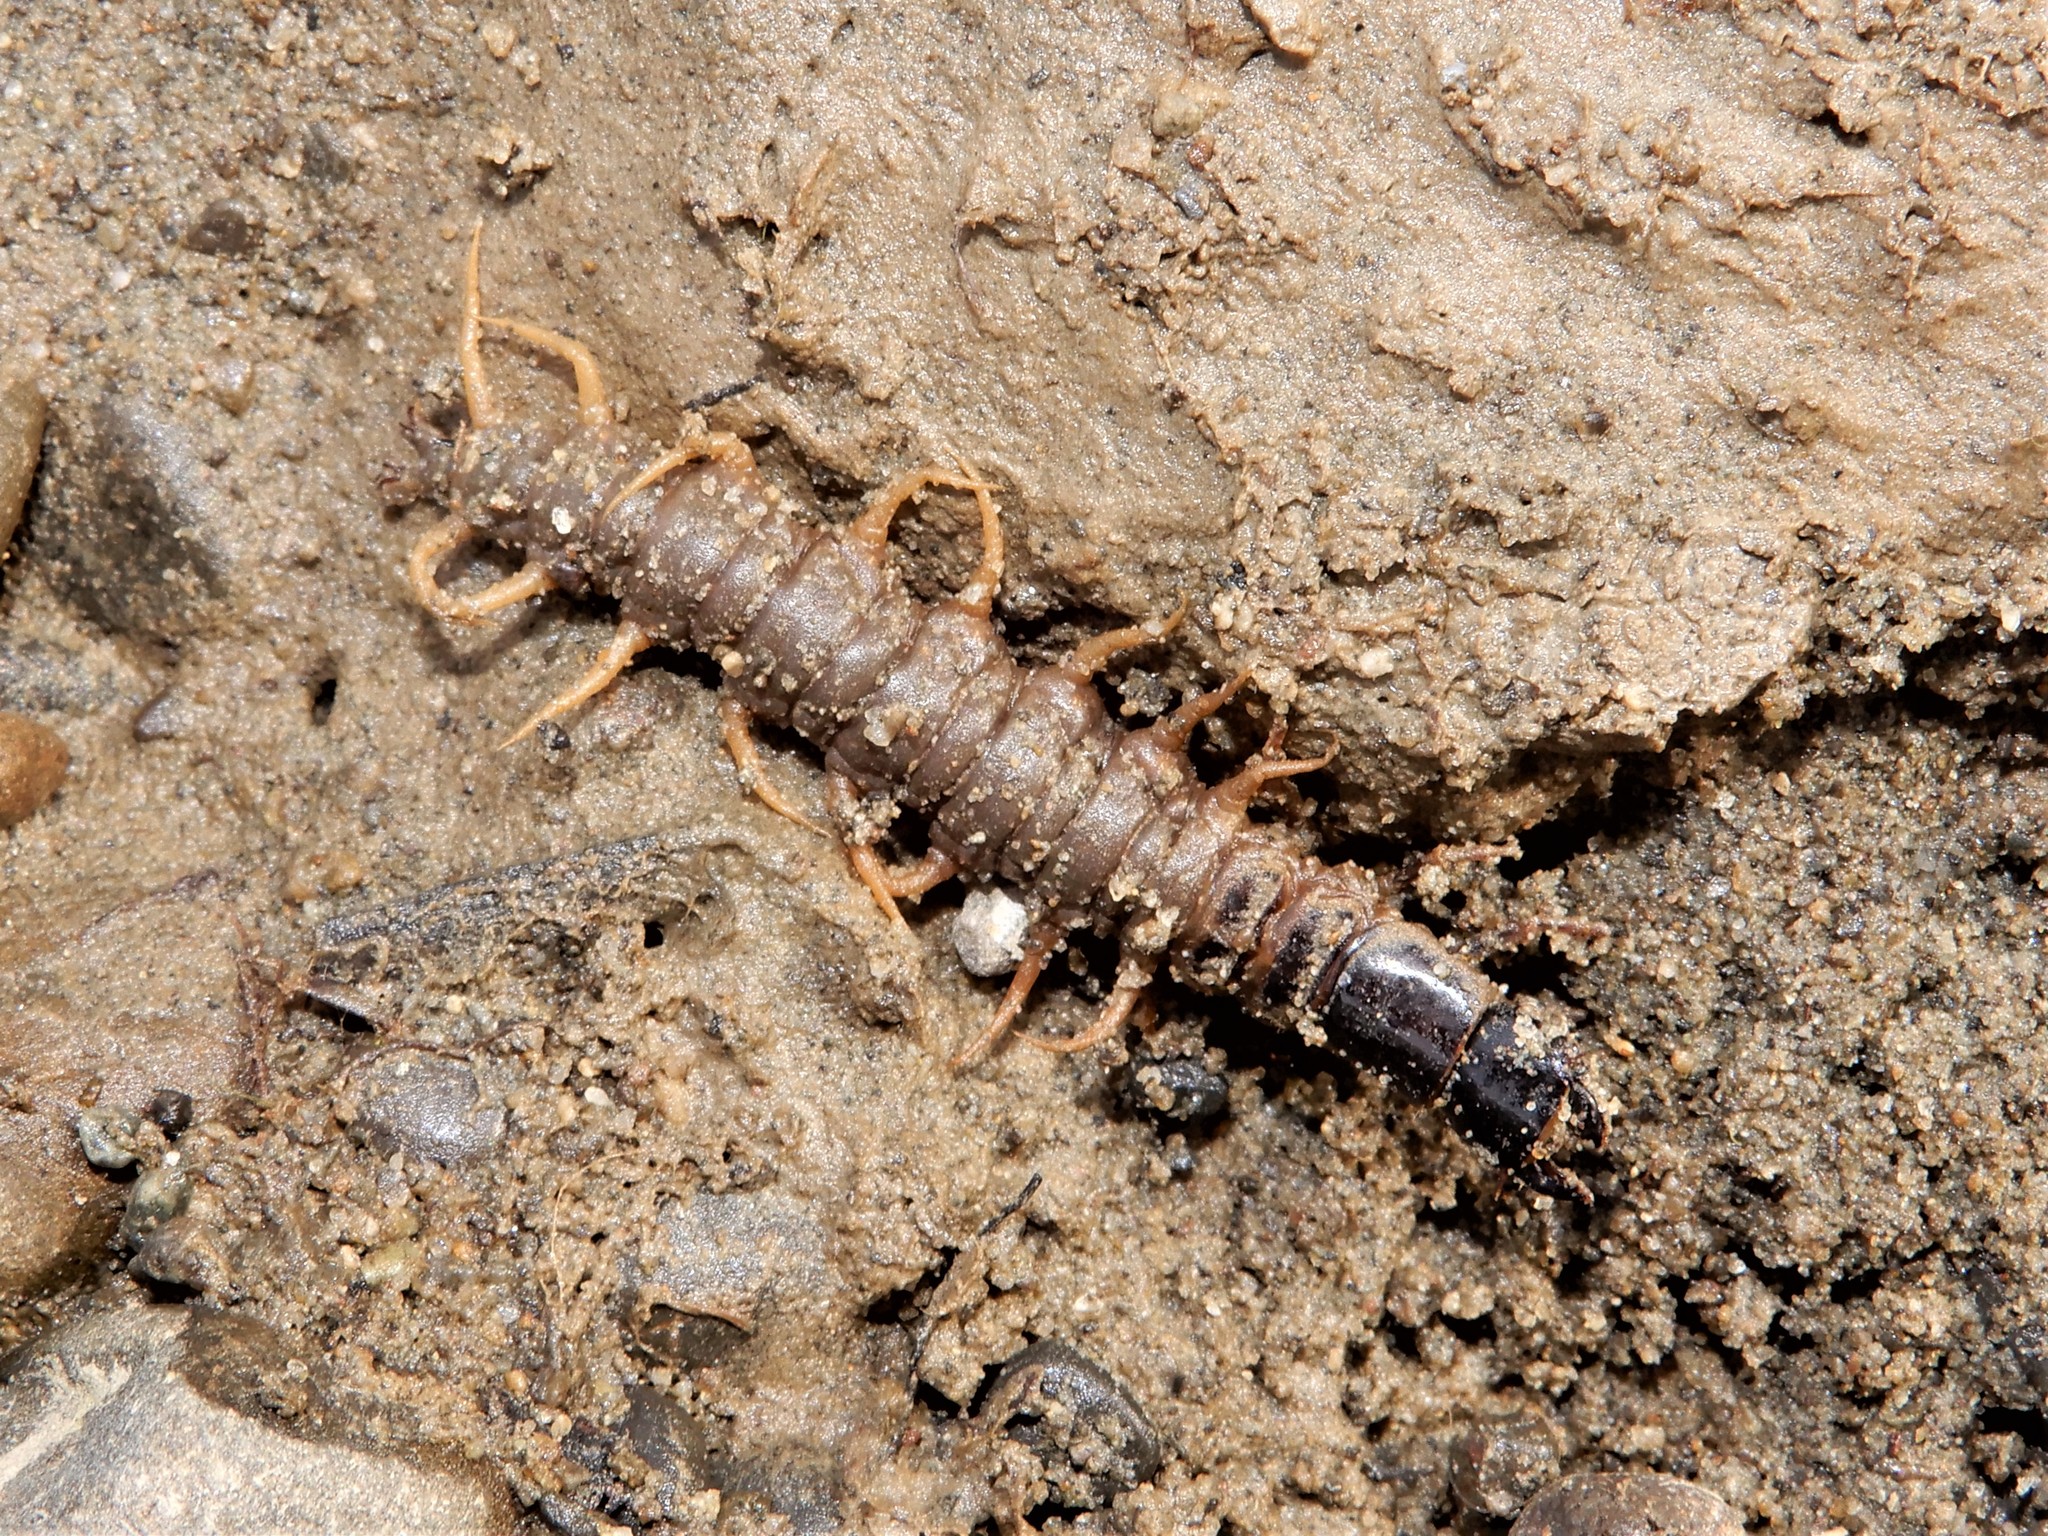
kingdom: Animalia
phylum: Arthropoda
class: Insecta
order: Megaloptera
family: Corydalidae
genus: Archichauliodes
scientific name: Archichauliodes diversus
